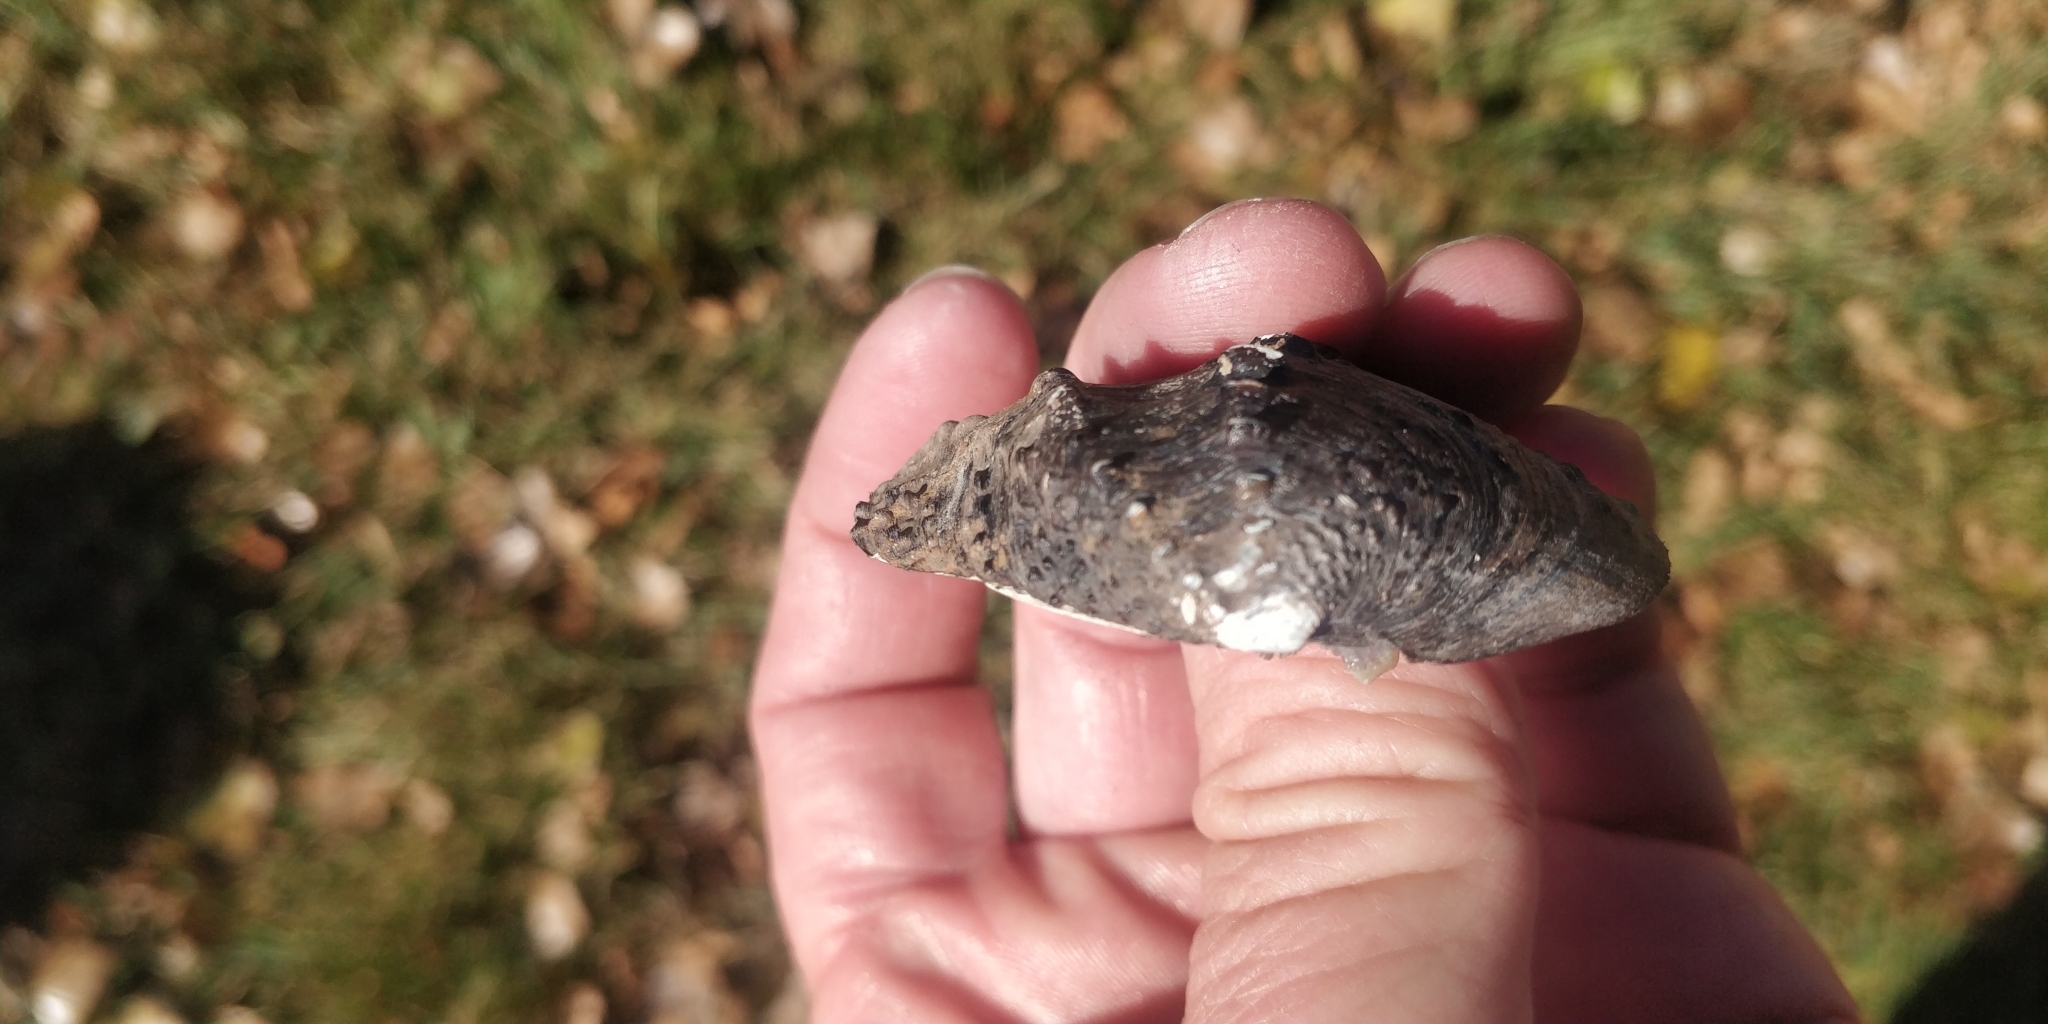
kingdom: Animalia
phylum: Mollusca
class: Bivalvia
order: Unionida
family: Unionidae
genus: Tritogonia
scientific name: Tritogonia nobilis
